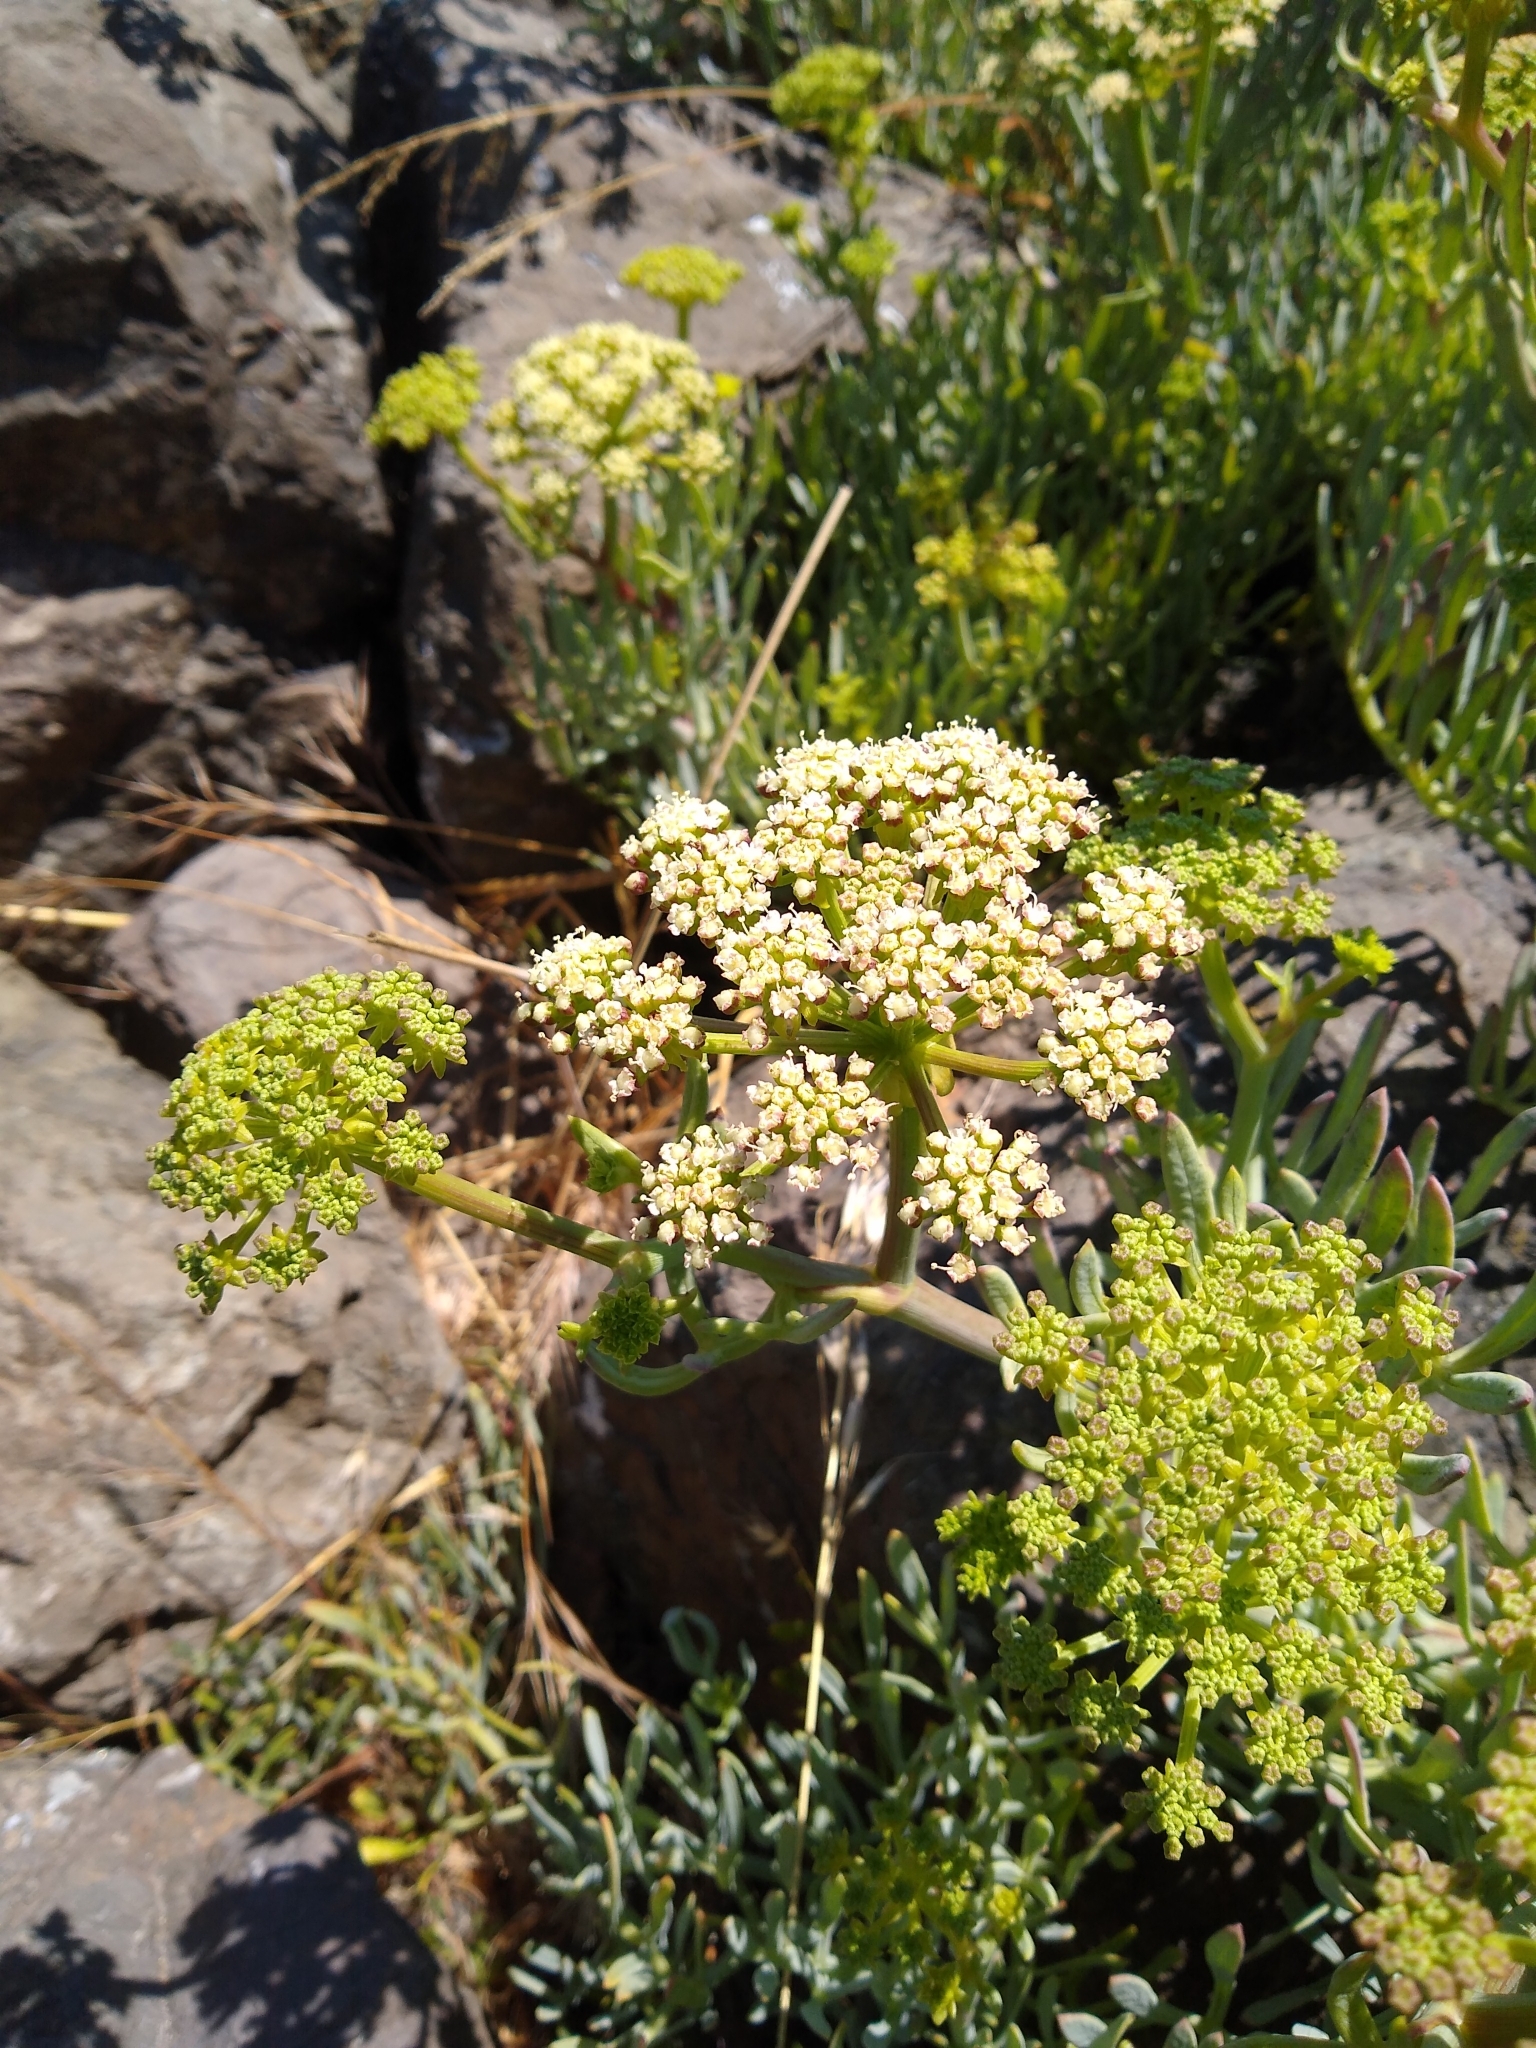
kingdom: Plantae
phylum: Tracheophyta
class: Magnoliopsida
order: Apiales
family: Apiaceae
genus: Crithmum
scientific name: Crithmum maritimum
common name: Rock samphire
